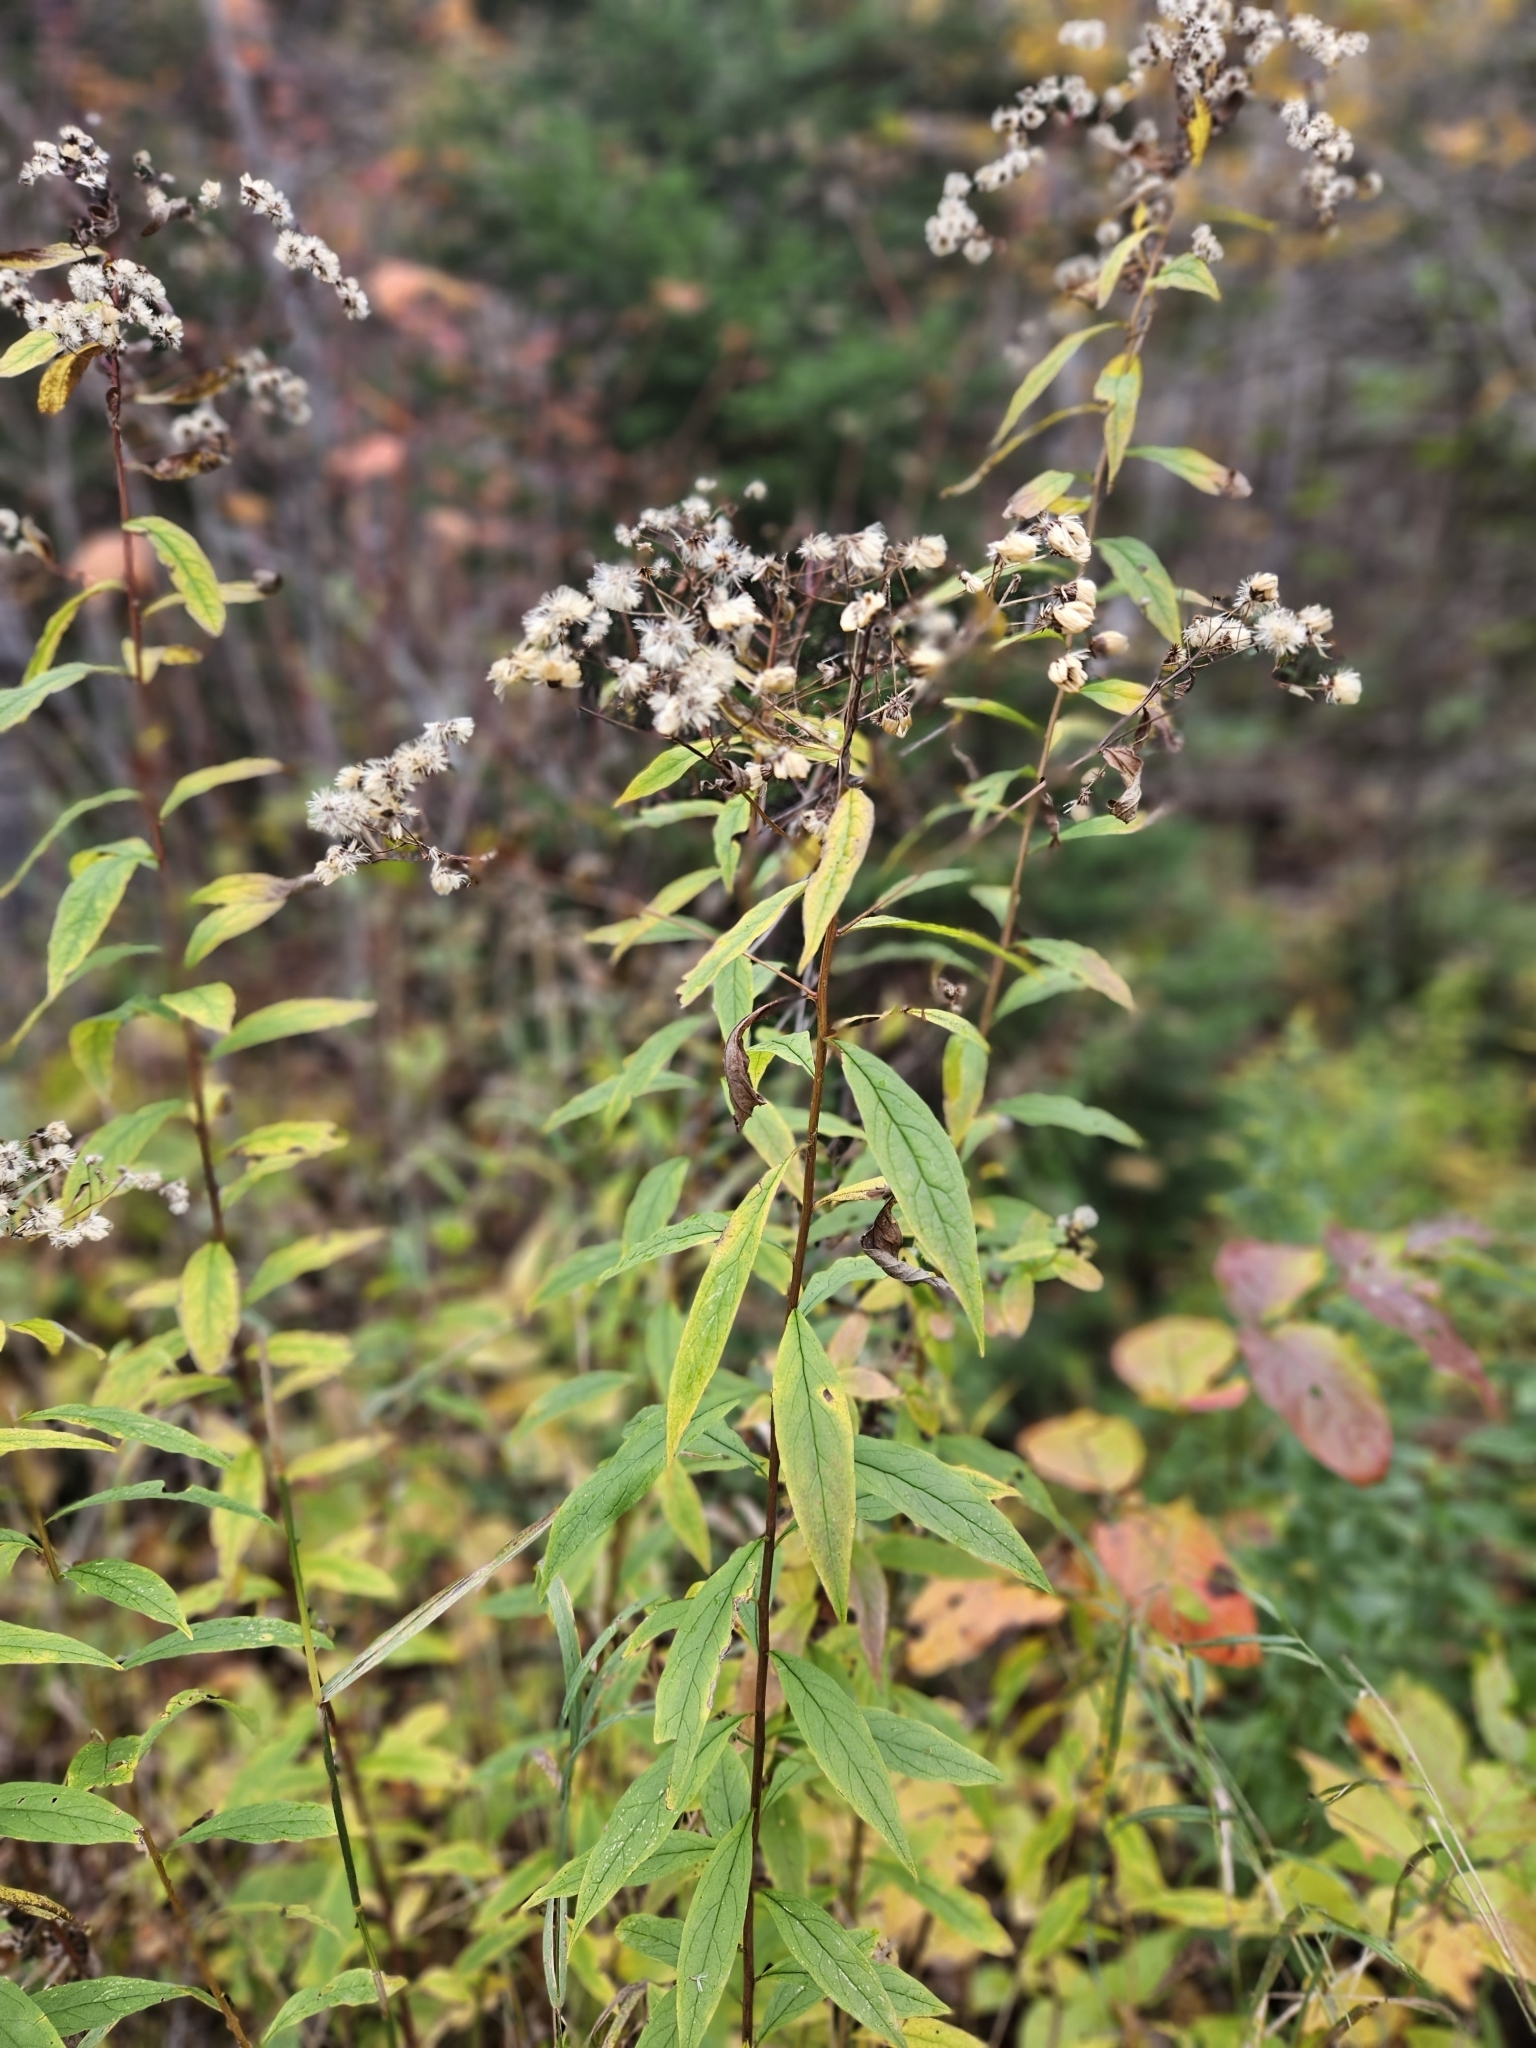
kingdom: Plantae
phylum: Tracheophyta
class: Magnoliopsida
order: Asterales
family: Asteraceae
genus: Doellingeria
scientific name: Doellingeria umbellata
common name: Flat-top white aster
